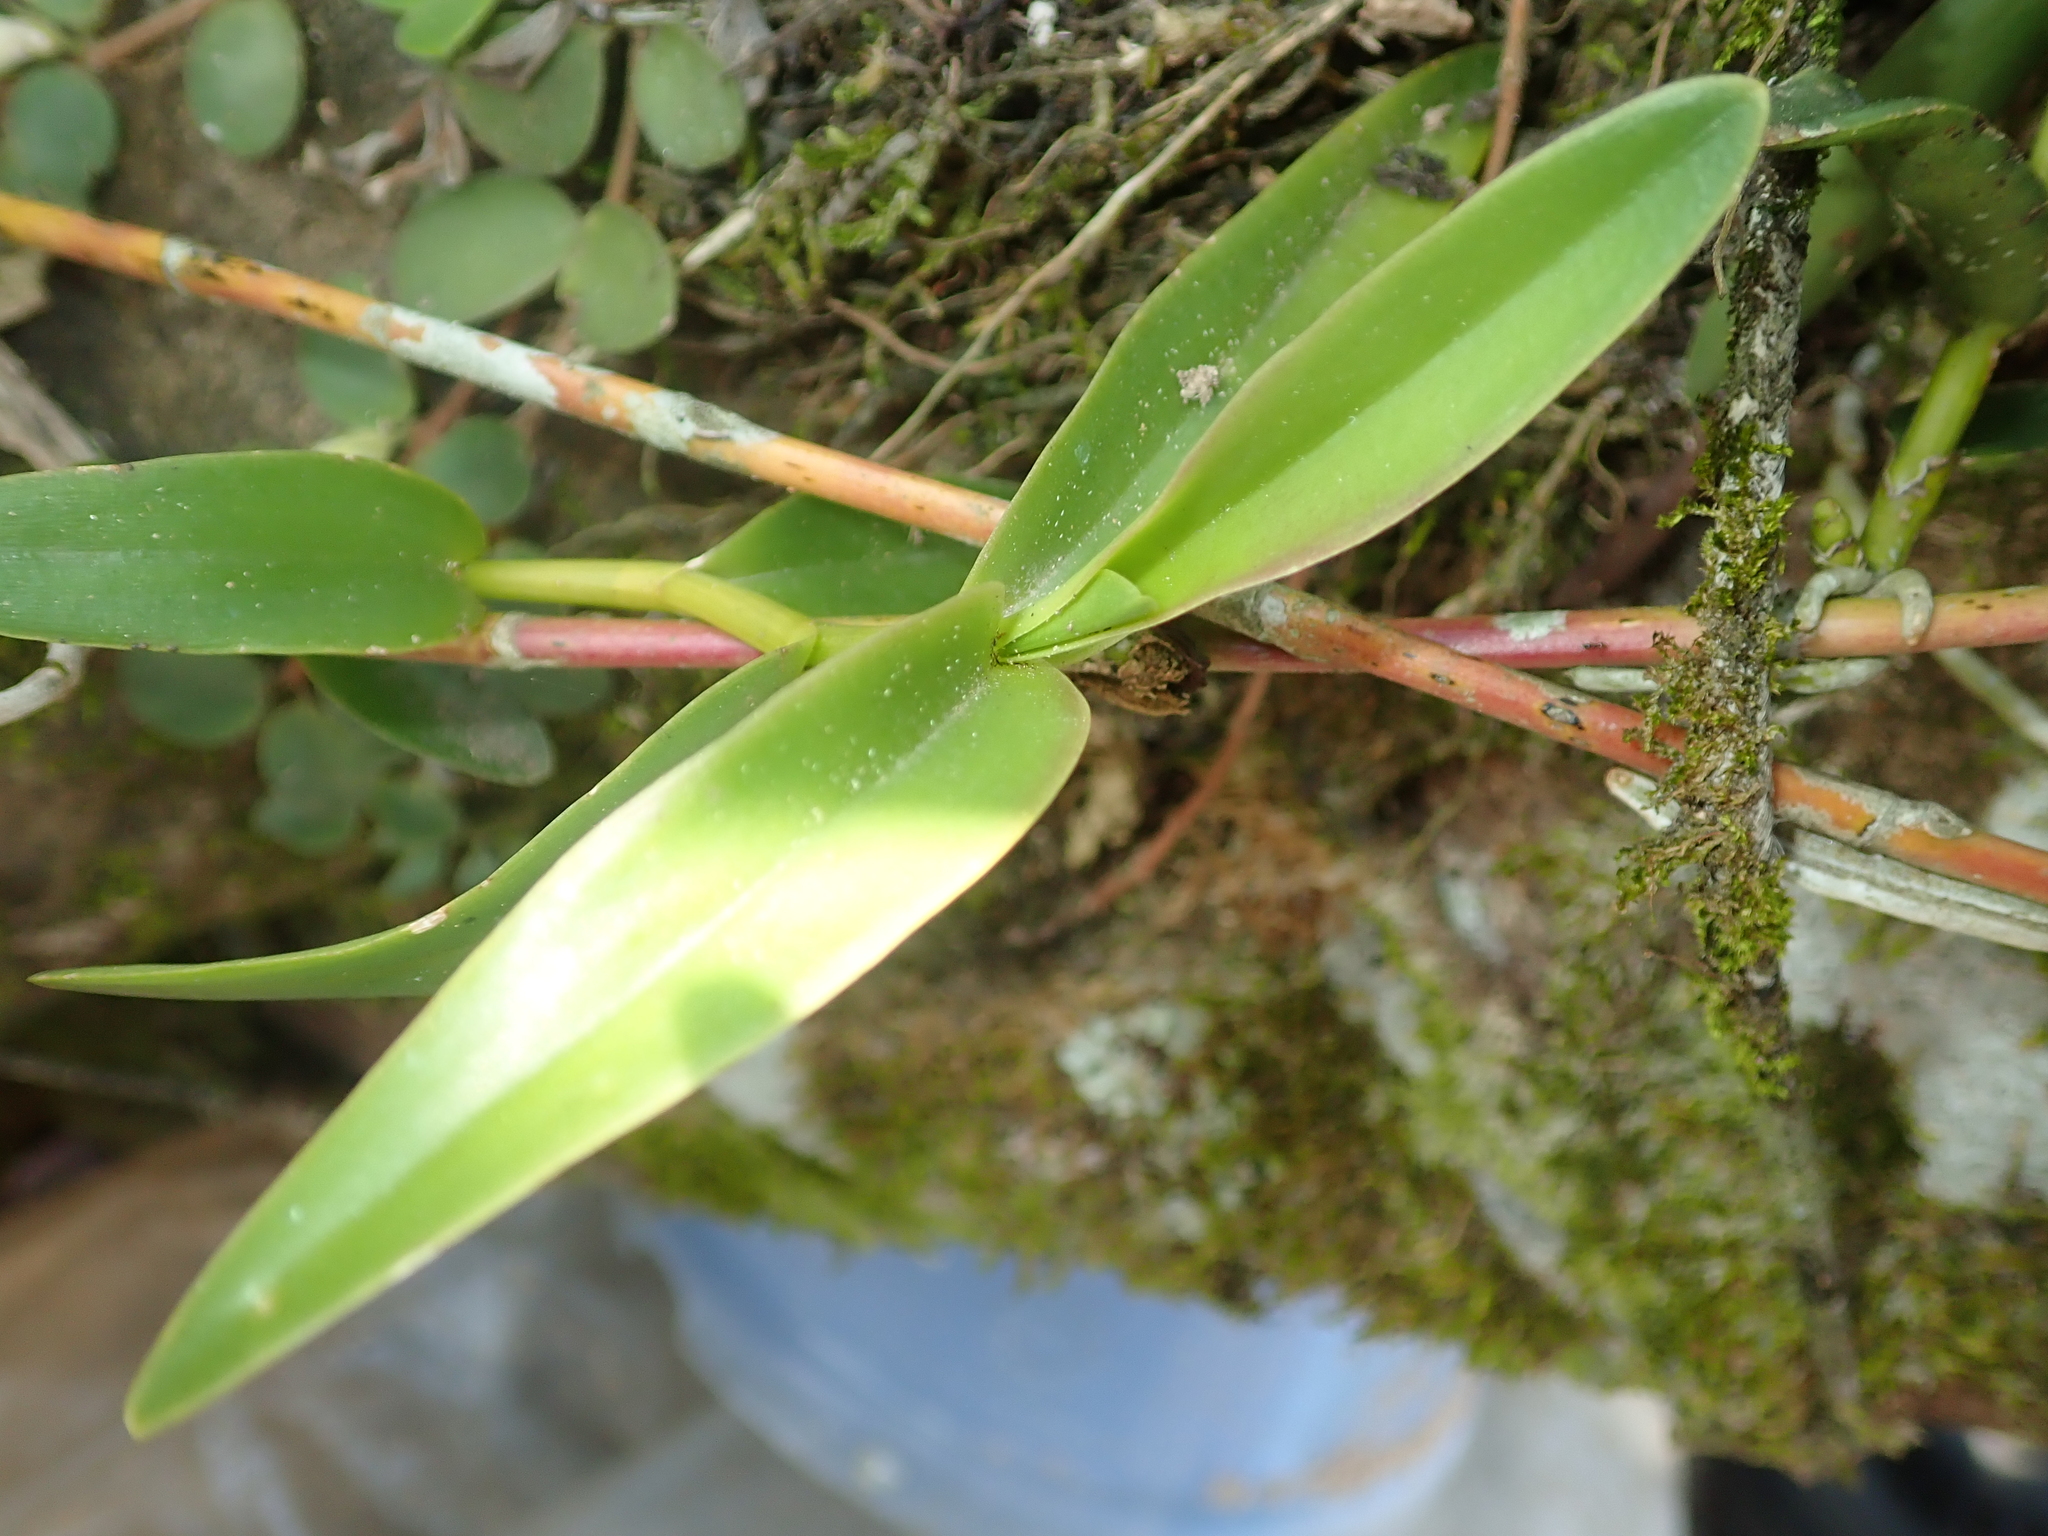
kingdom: Plantae
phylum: Tracheophyta
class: Liliopsida
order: Asparagales
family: Orchidaceae
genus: Epidendrum
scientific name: Epidendrum secundum
